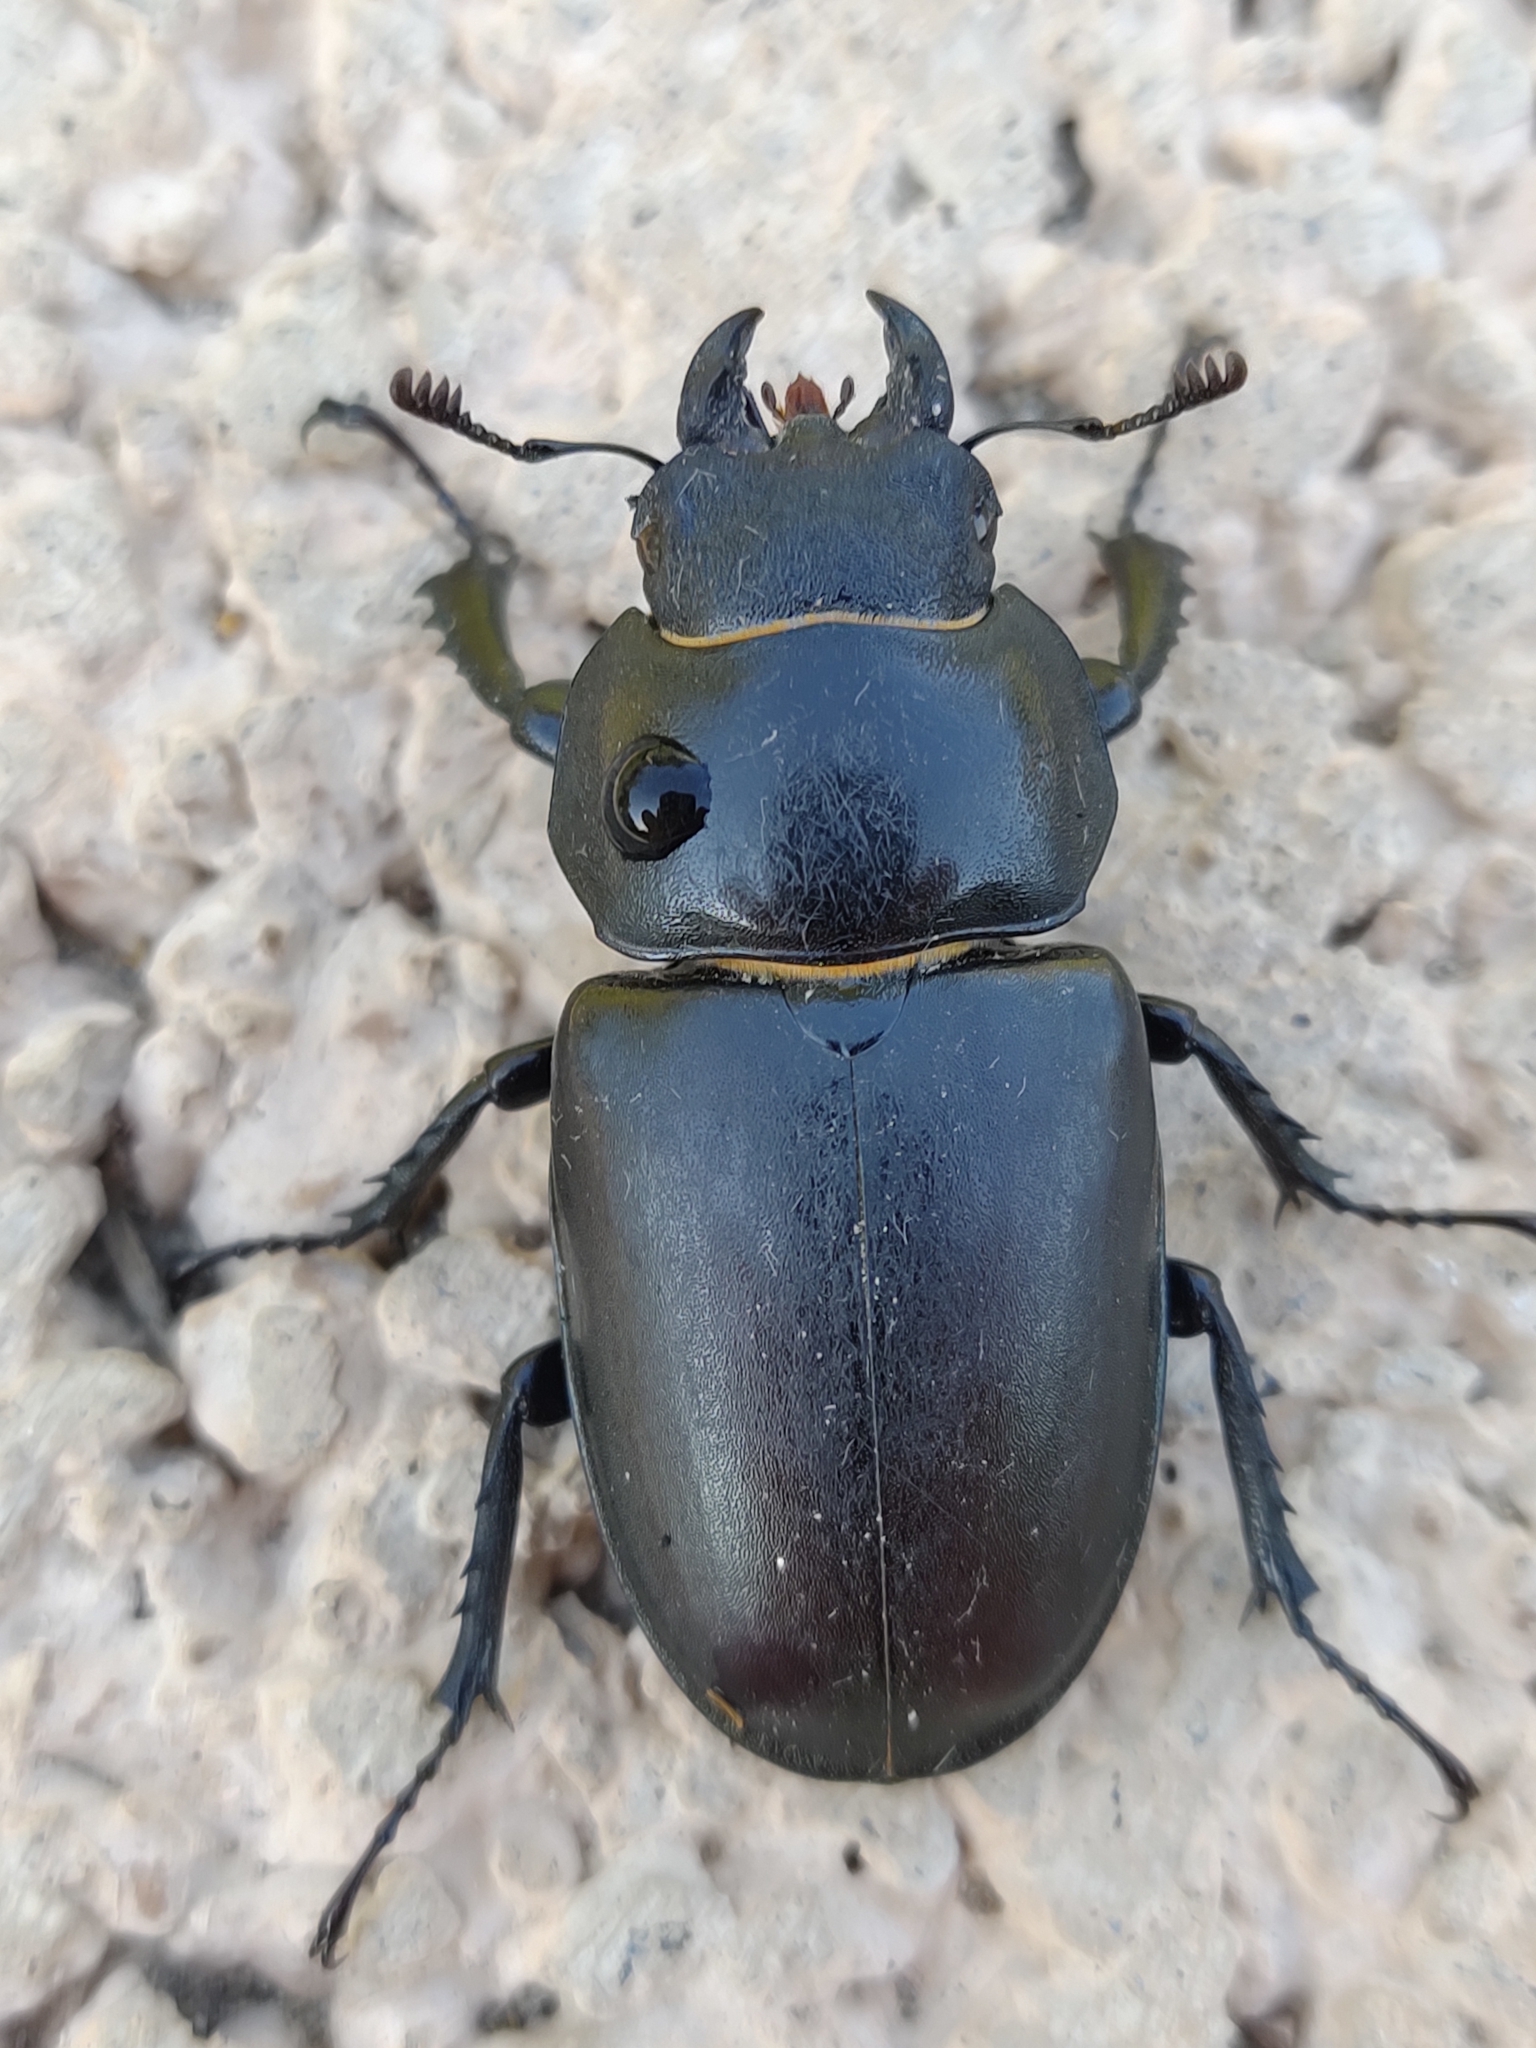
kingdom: Animalia
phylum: Arthropoda
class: Insecta
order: Coleoptera
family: Lucanidae
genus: Lucanus
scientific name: Lucanus cervus
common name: Stag beetle
